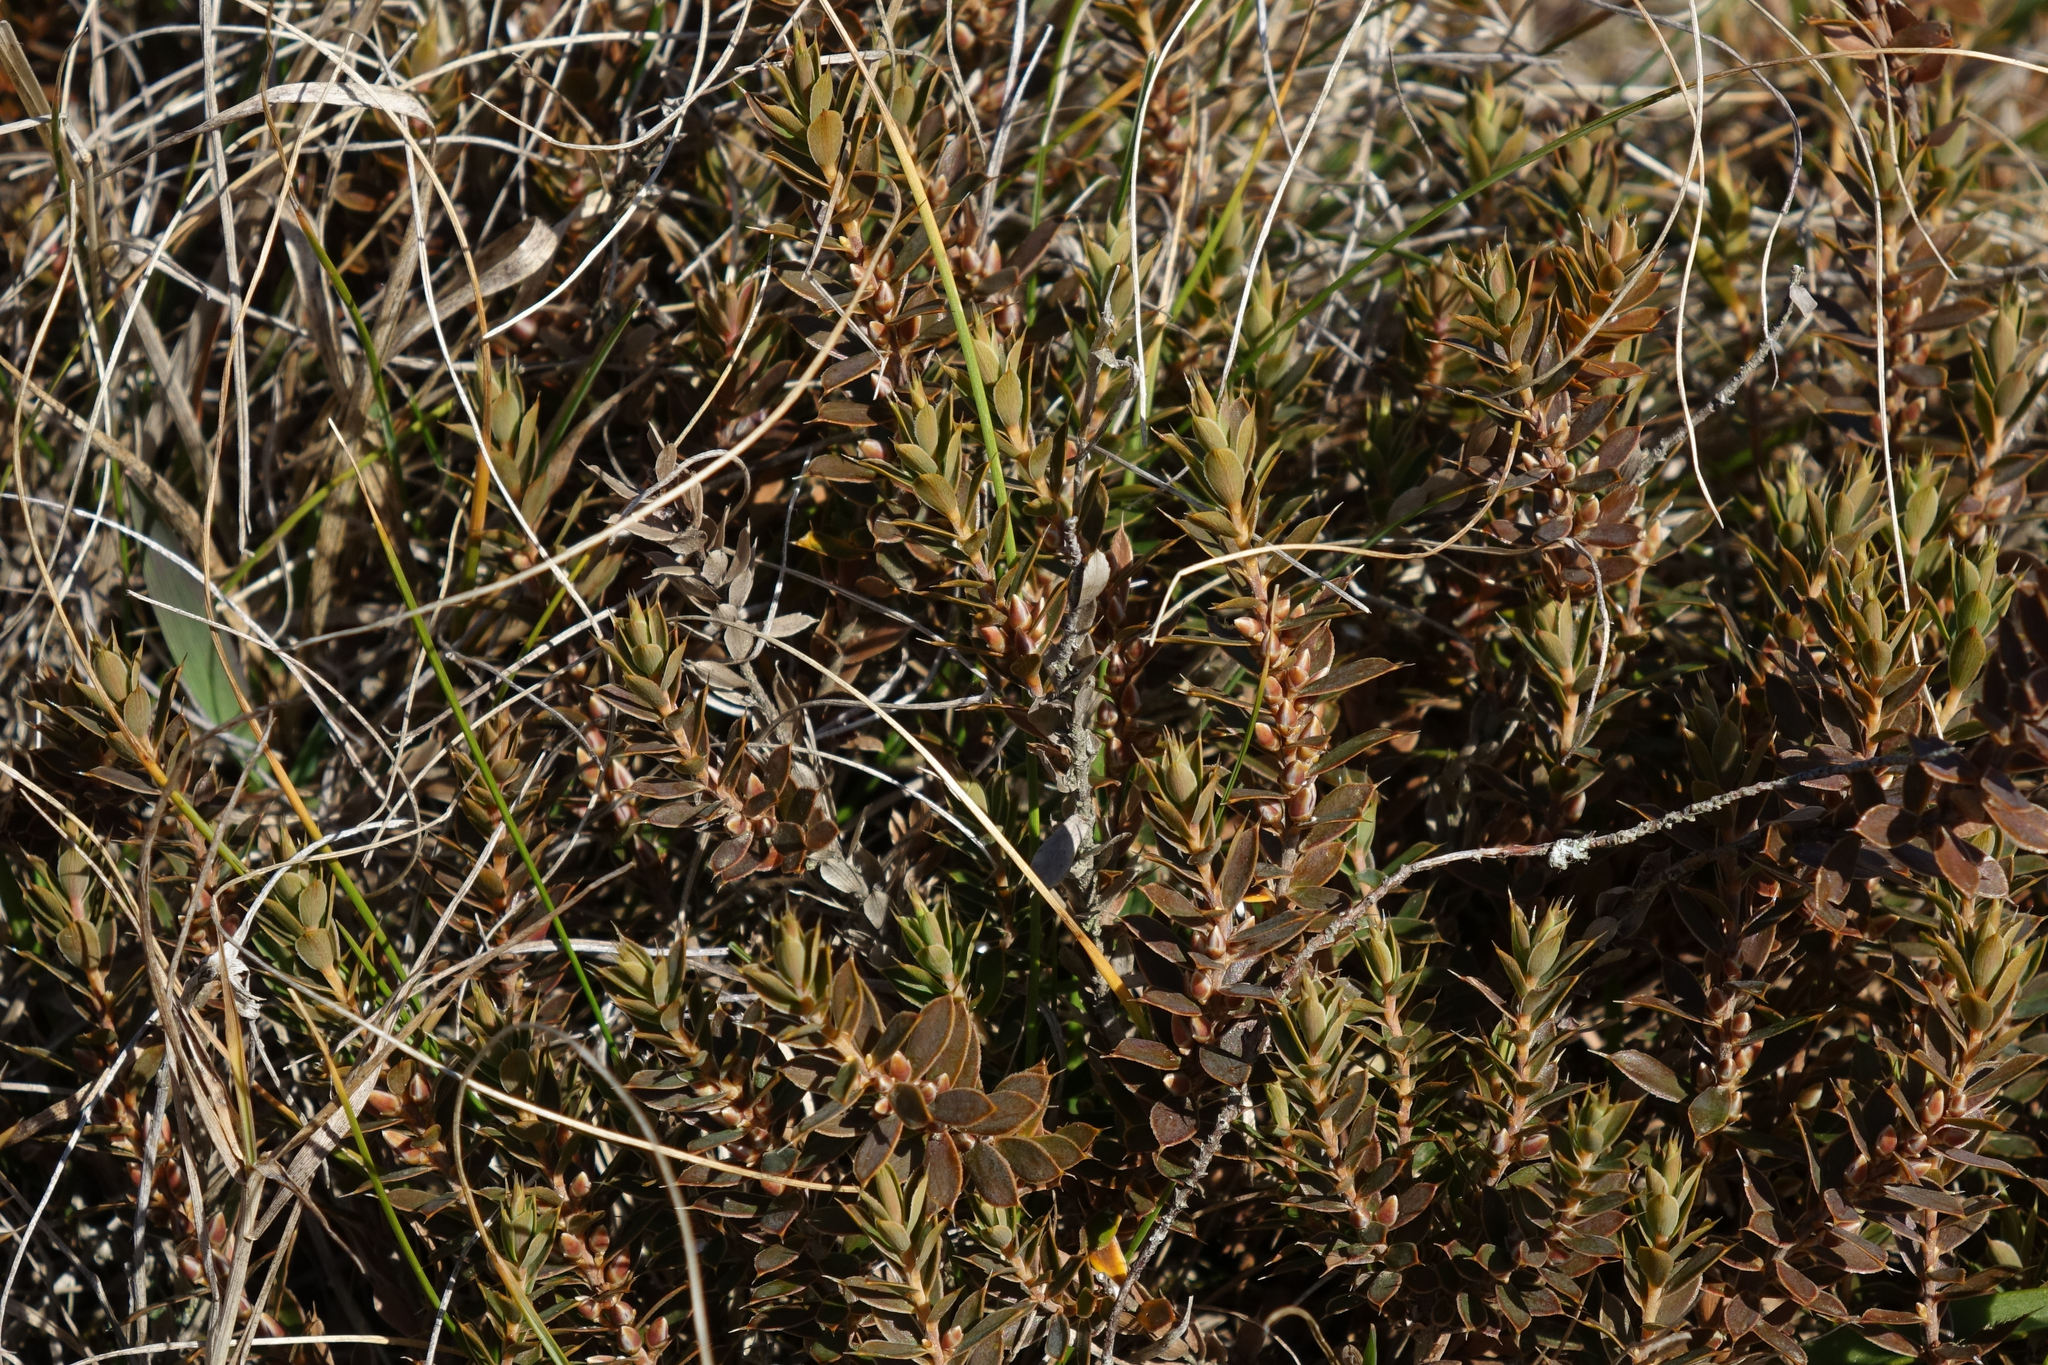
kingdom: Plantae
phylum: Tracheophyta
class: Magnoliopsida
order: Ericales
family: Ericaceae
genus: Styphelia
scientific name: Styphelia nesophila
